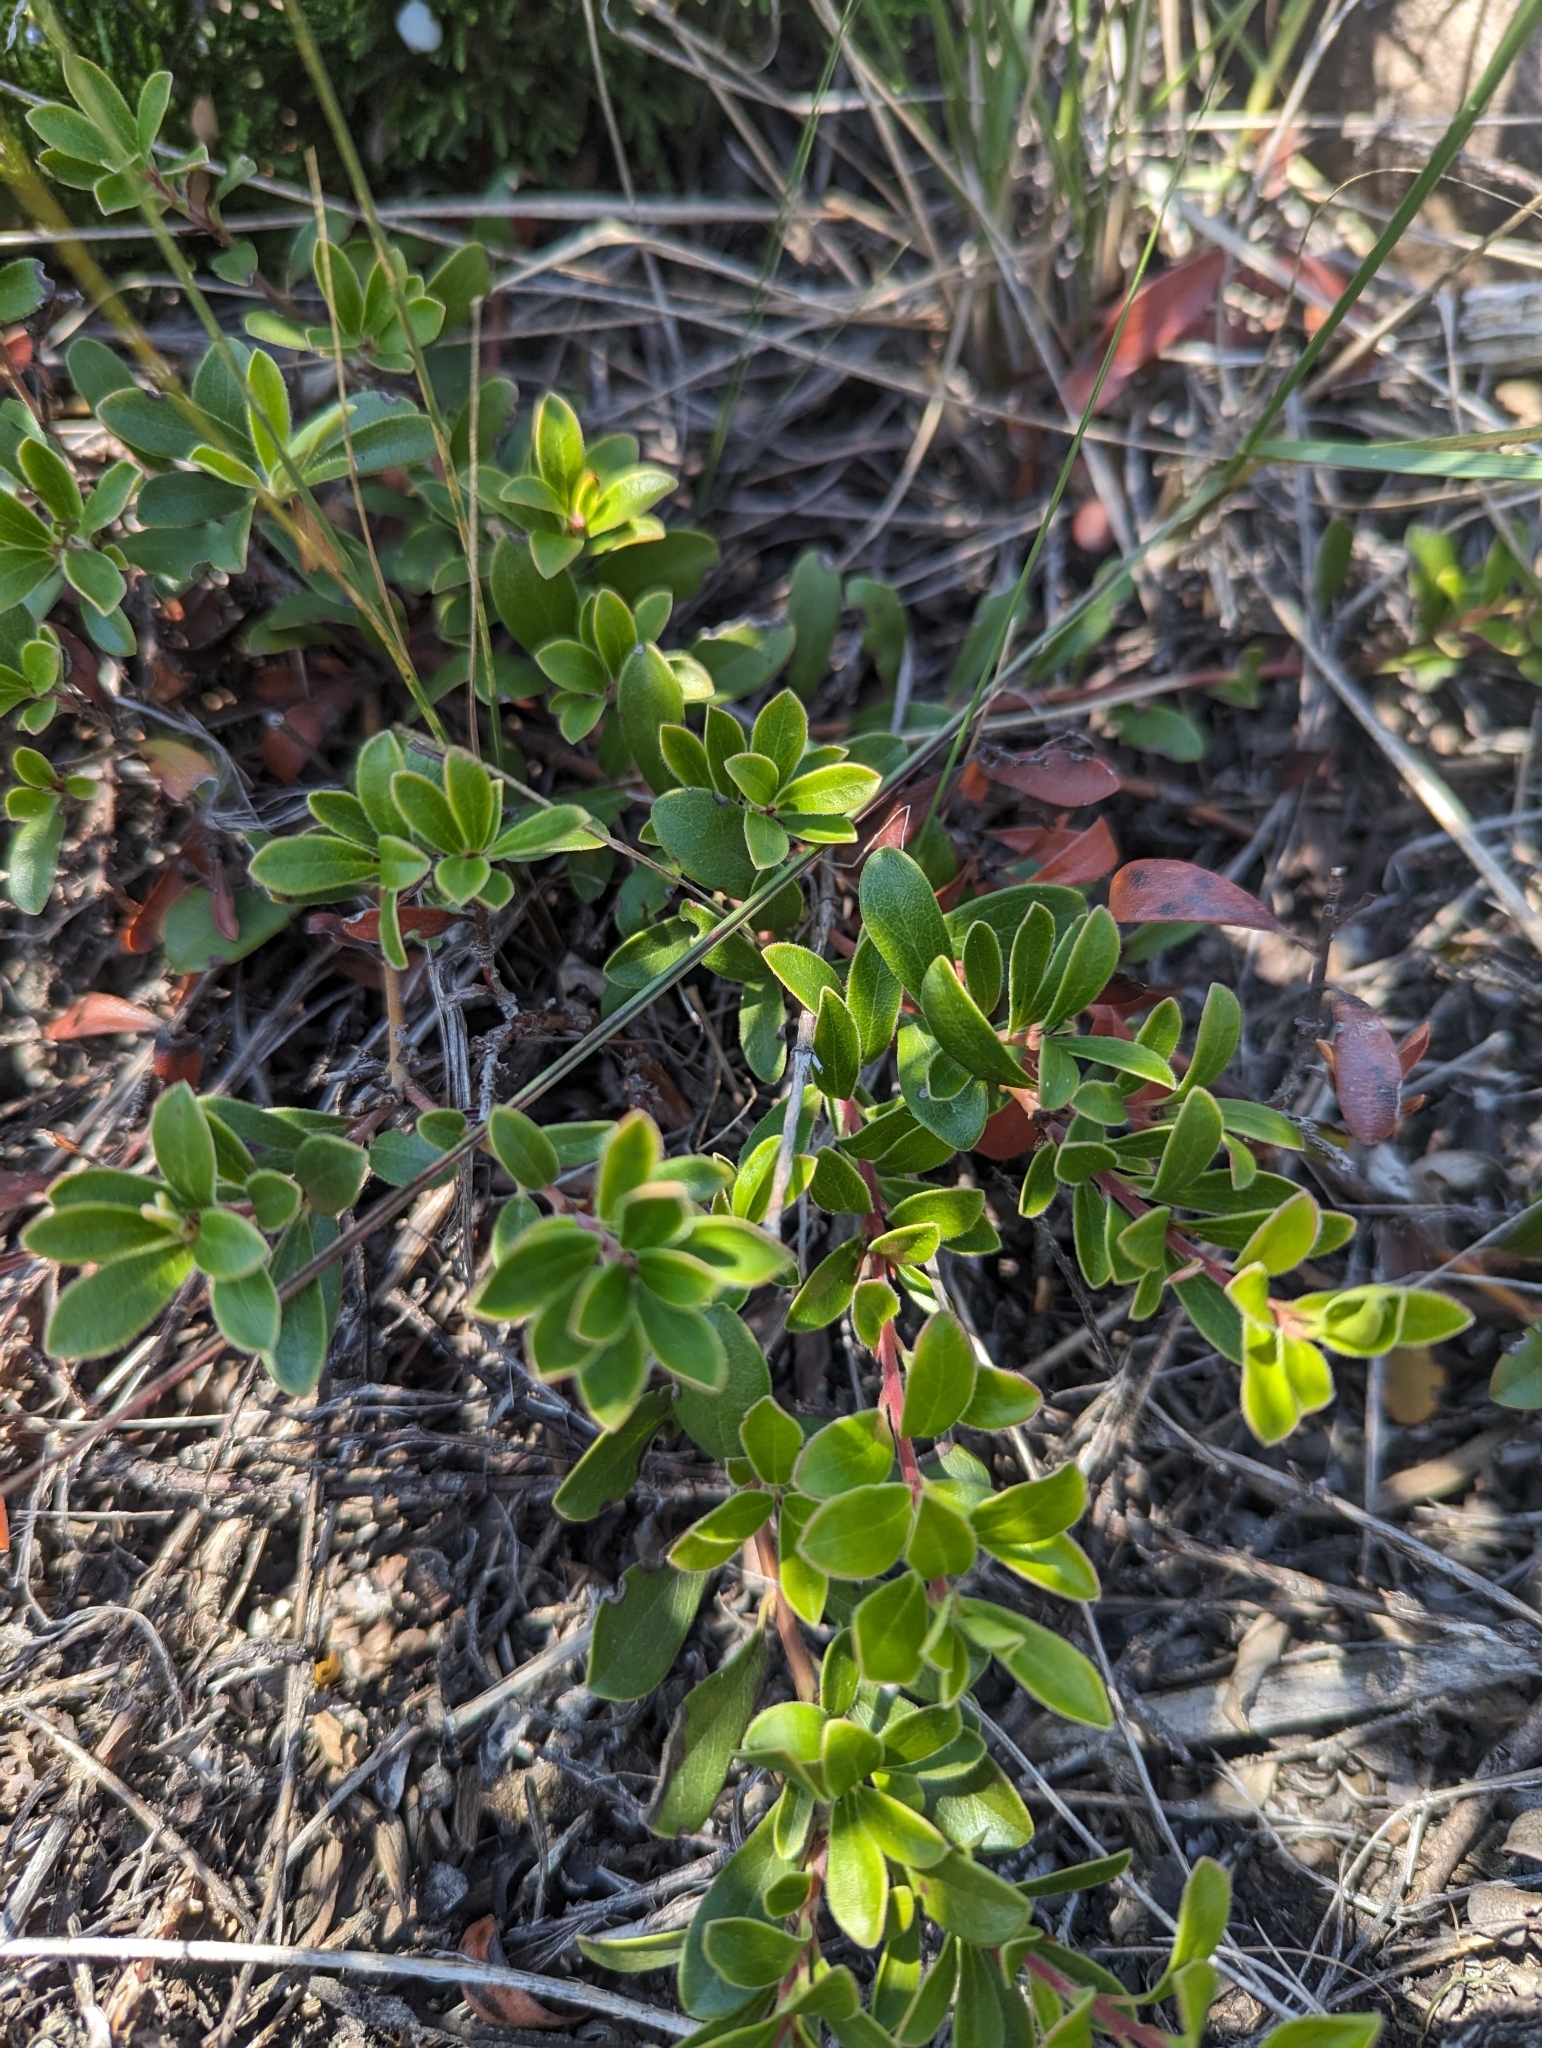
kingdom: Plantae
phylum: Tracheophyta
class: Magnoliopsida
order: Ericales
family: Ericaceae
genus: Arctostaphylos
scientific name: Arctostaphylos uva-ursi
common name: Bearberry
